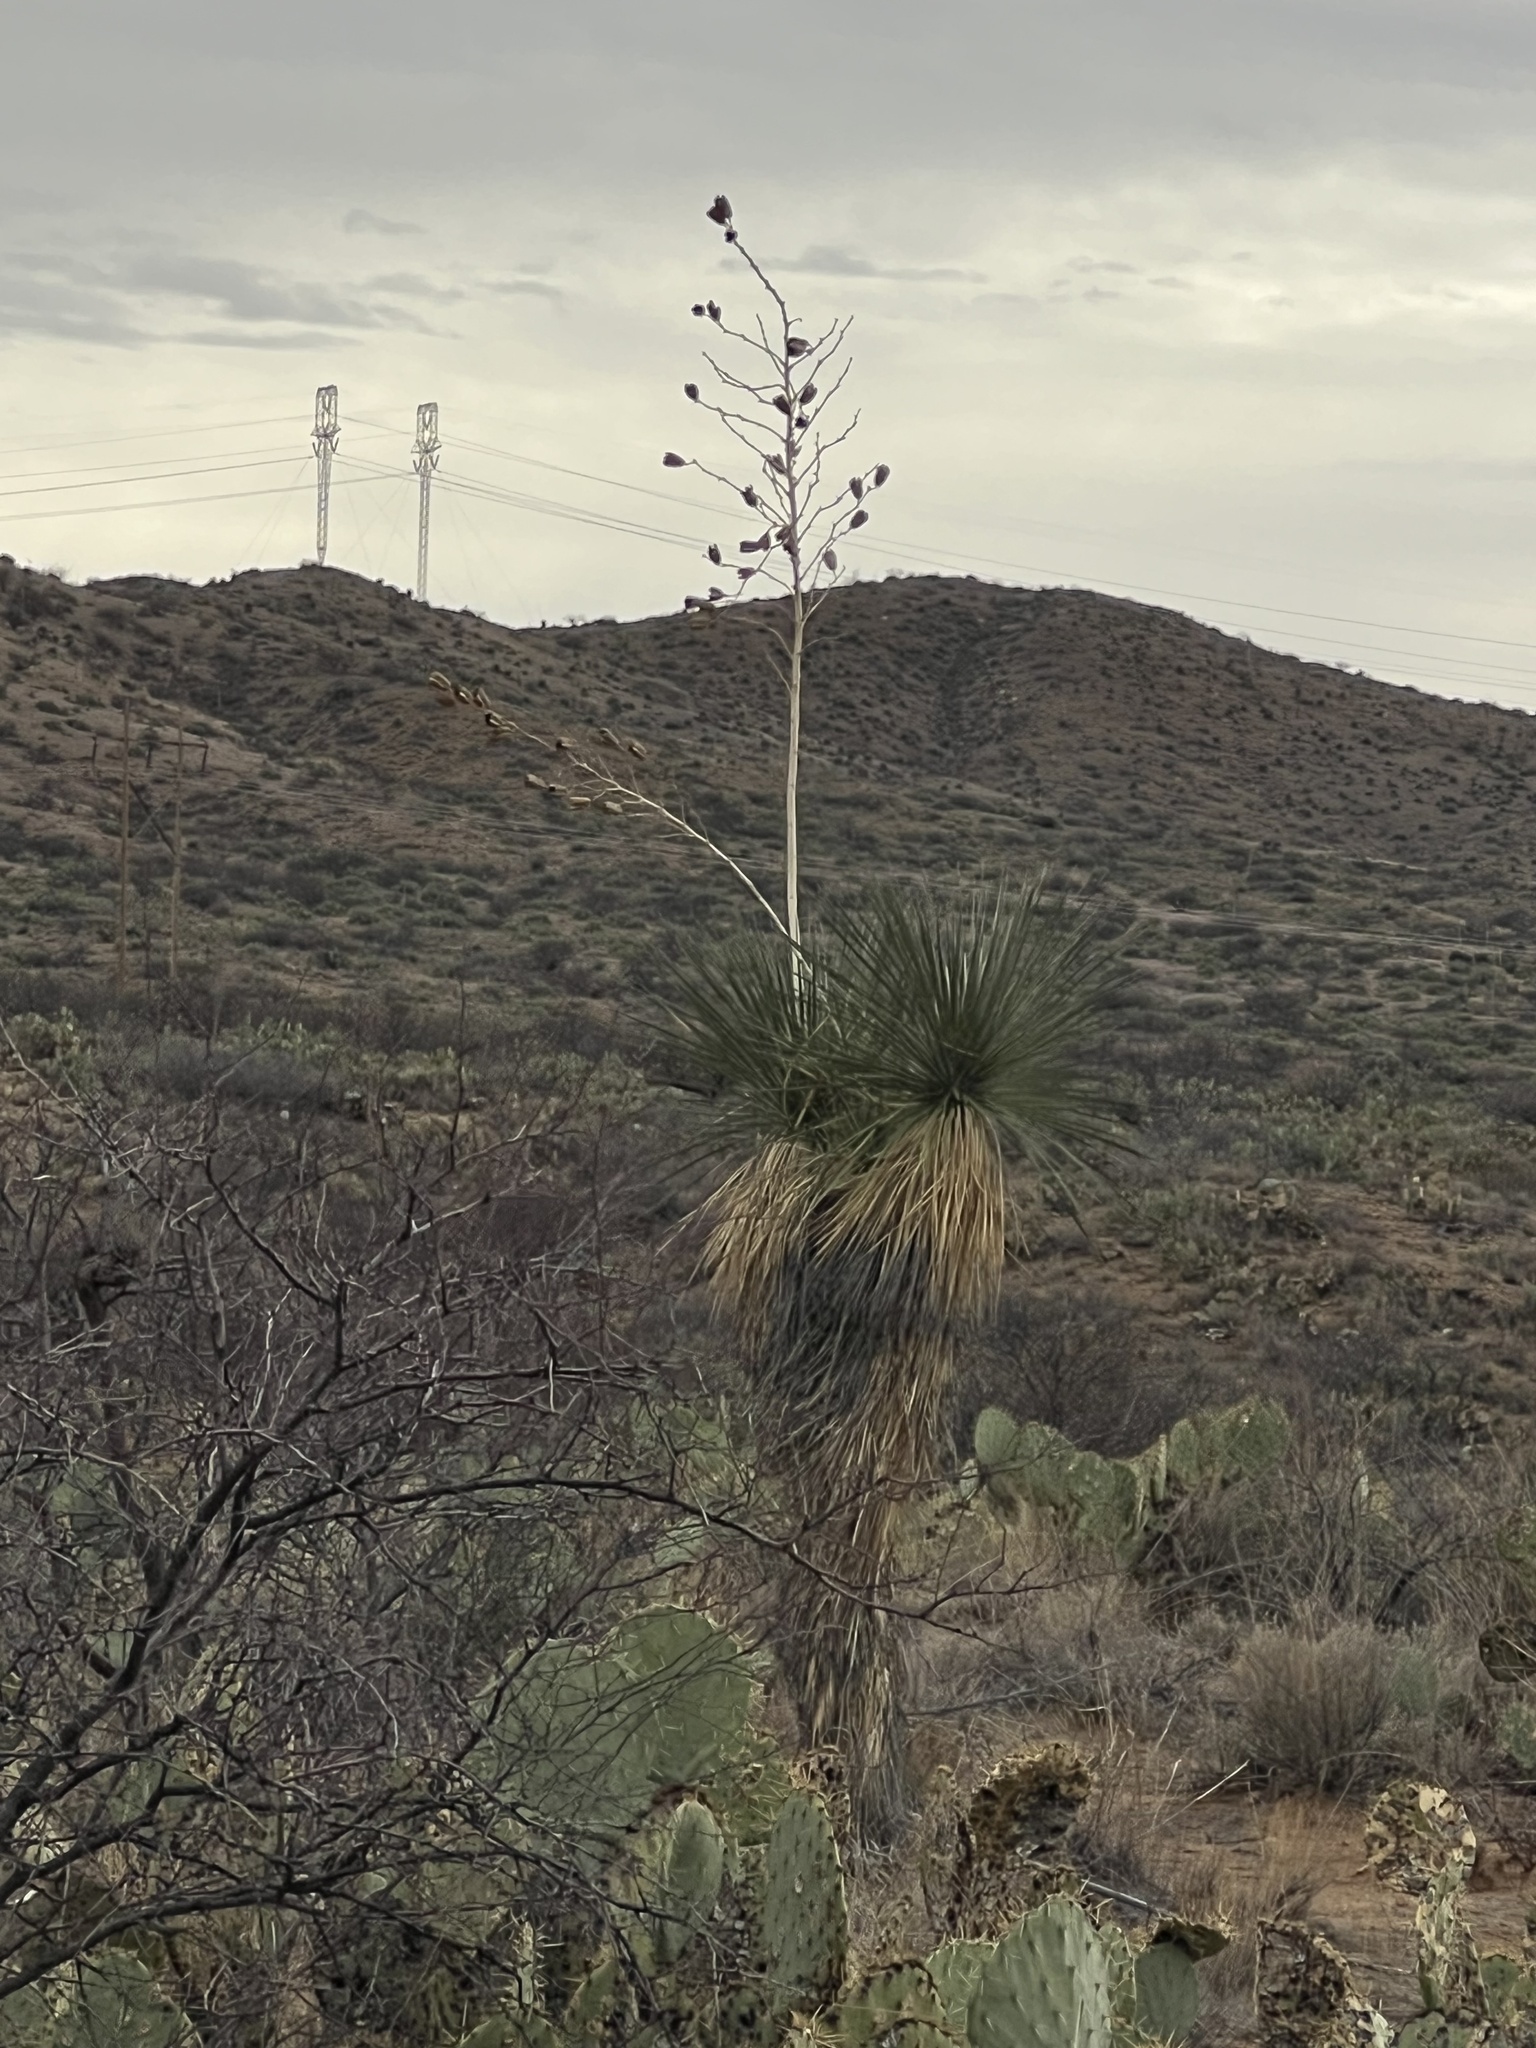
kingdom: Plantae
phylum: Tracheophyta
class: Liliopsida
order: Asparagales
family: Asparagaceae
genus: Yucca
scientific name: Yucca elata
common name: Palmella
